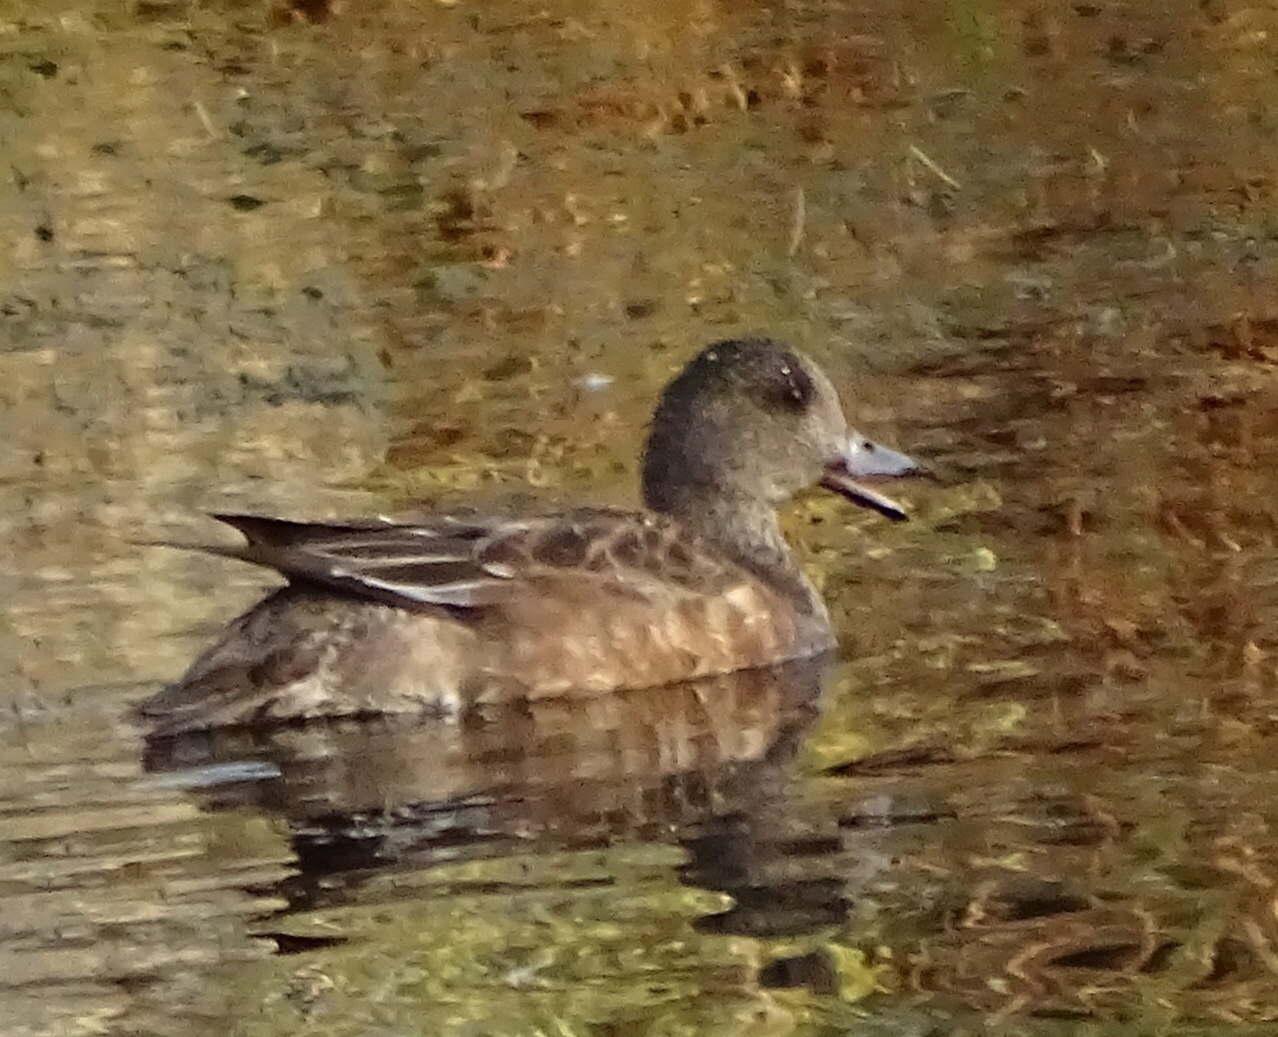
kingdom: Animalia
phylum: Chordata
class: Aves
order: Anseriformes
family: Anatidae
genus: Mareca
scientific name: Mareca americana
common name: American wigeon
